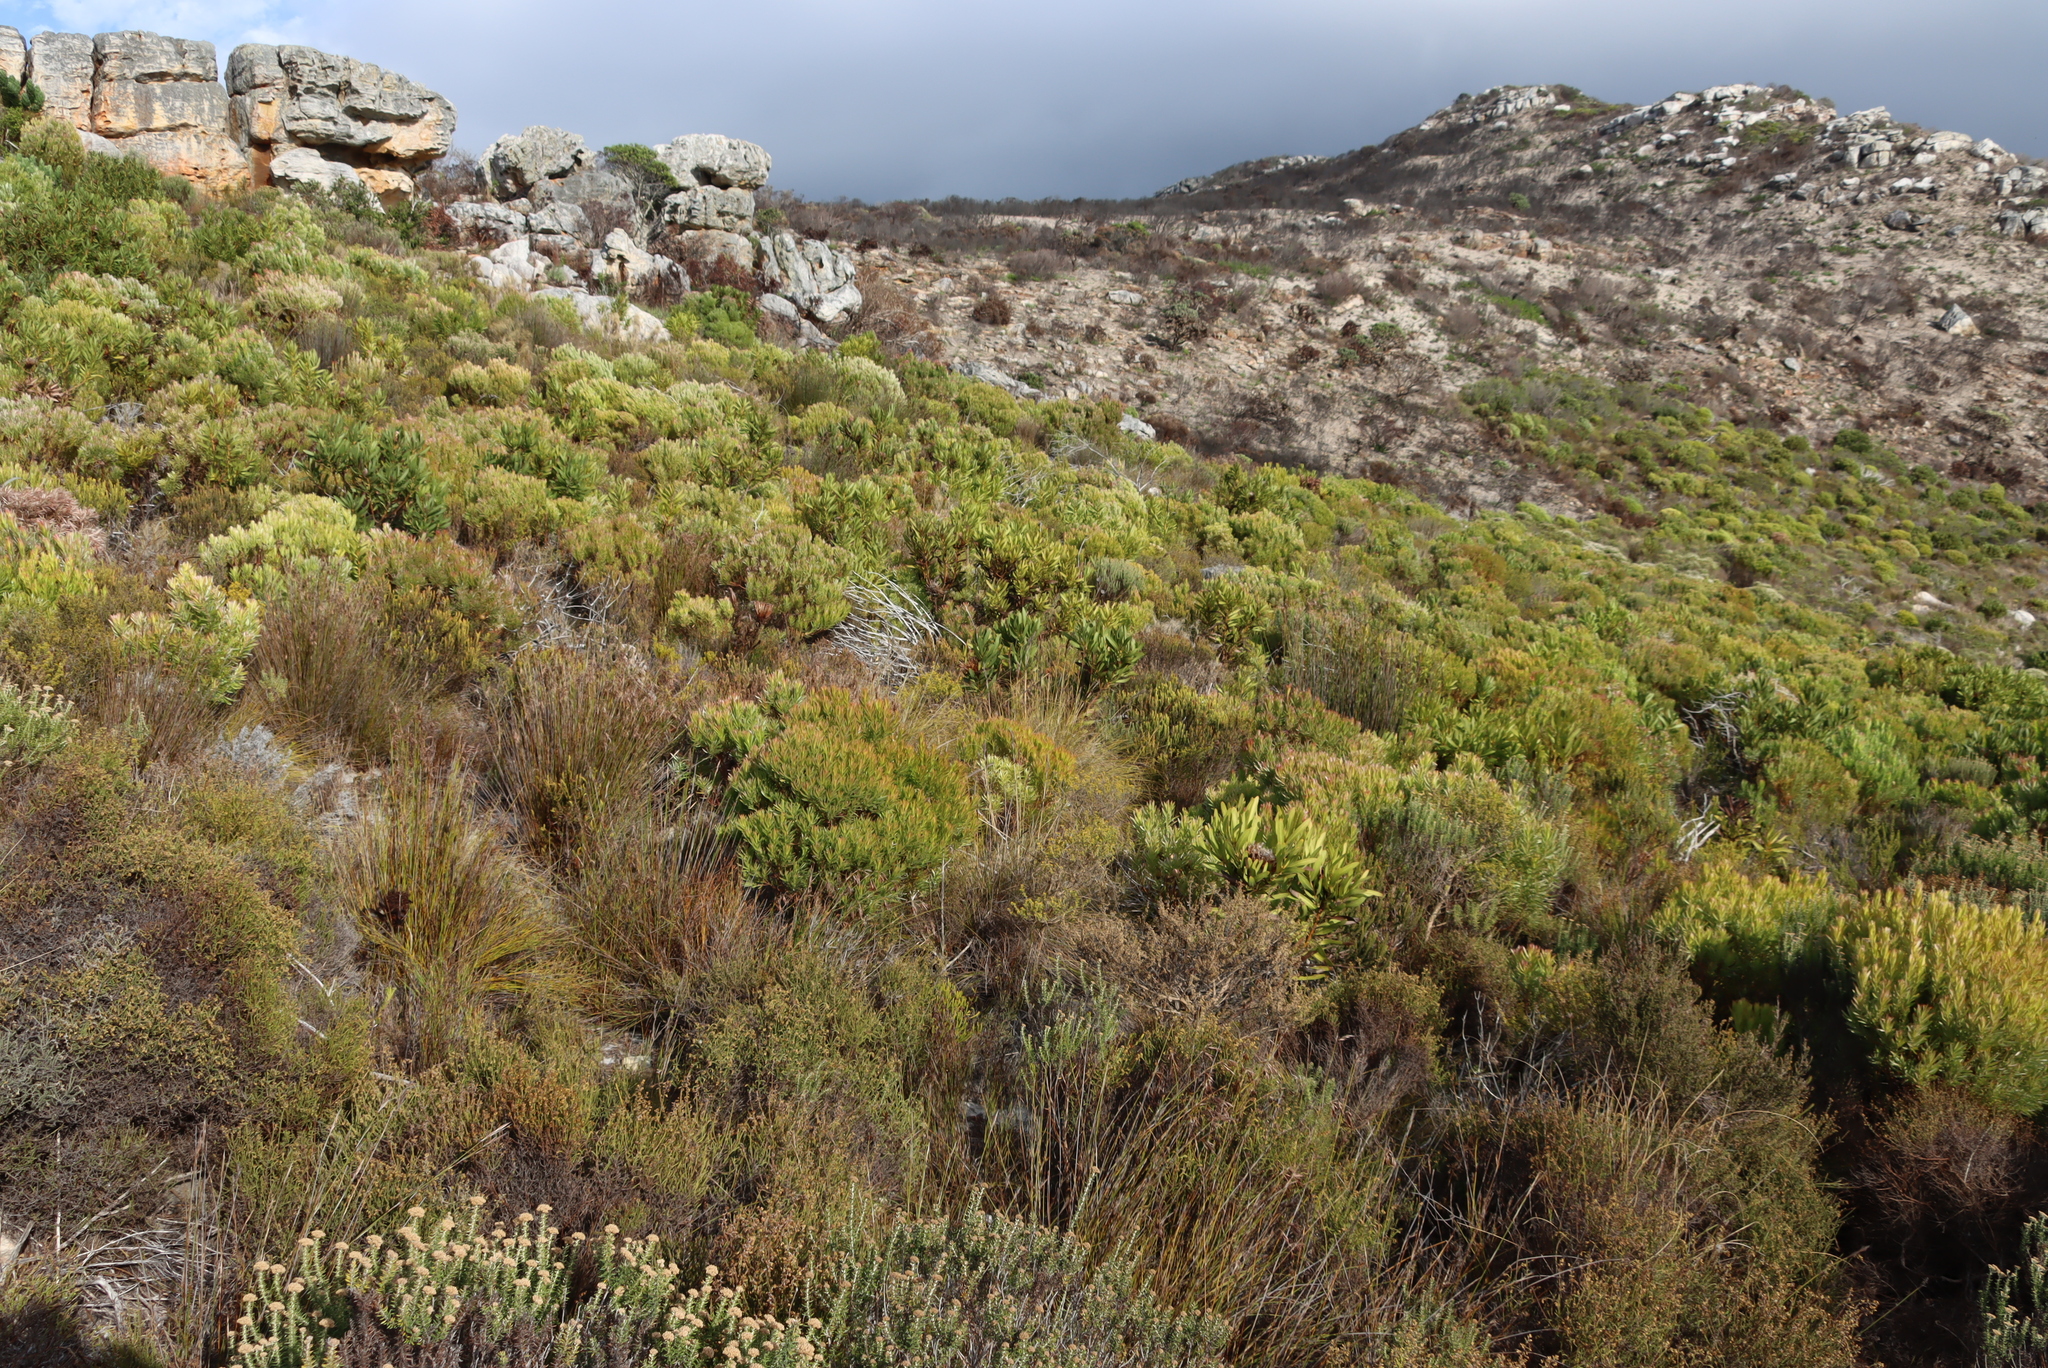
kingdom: Plantae
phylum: Tracheophyta
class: Magnoliopsida
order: Proteales
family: Proteaceae
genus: Leucadendron
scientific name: Leucadendron xanthoconus
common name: Sickle-leaf conebush
